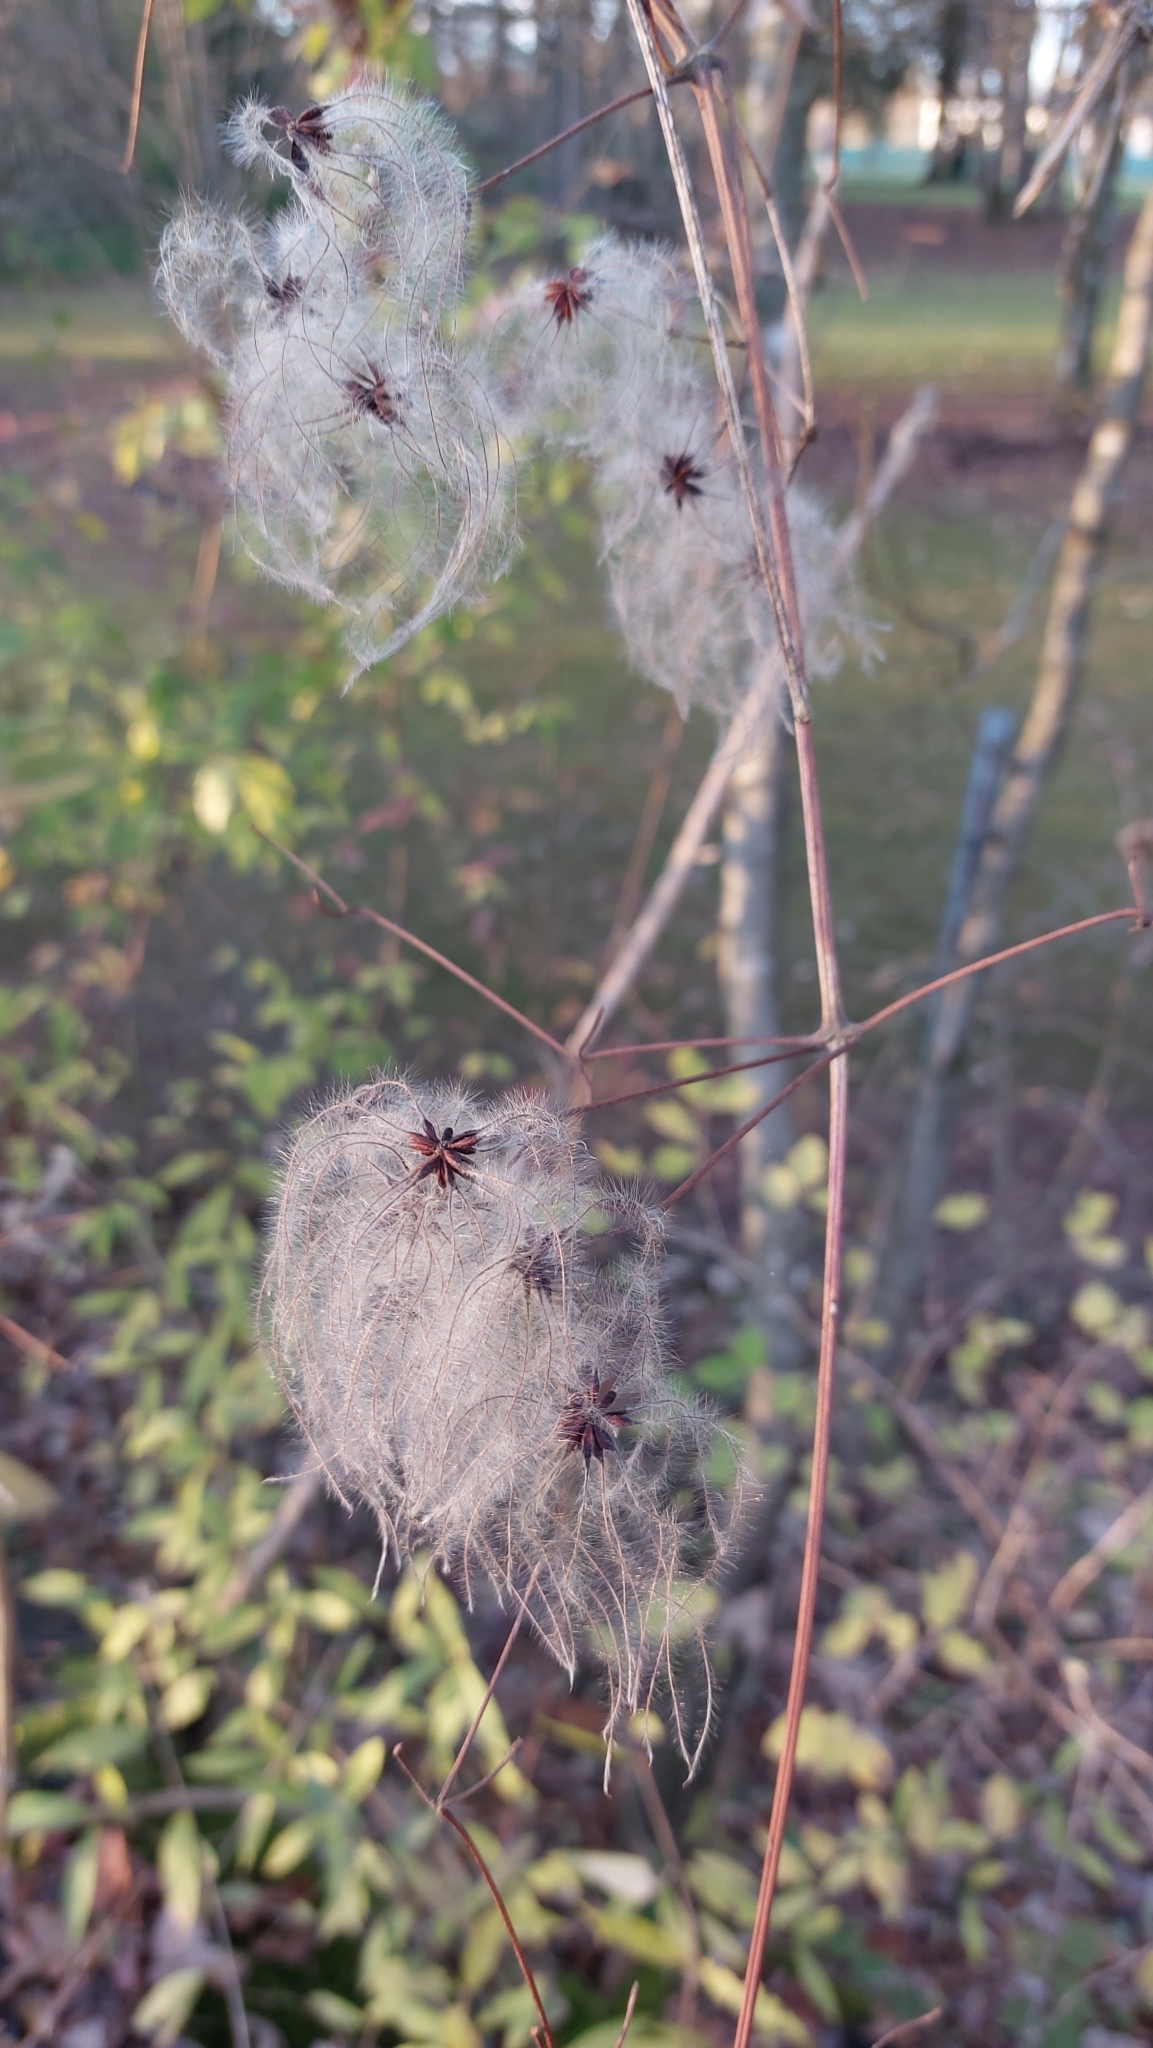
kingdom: Plantae
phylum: Tracheophyta
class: Magnoliopsida
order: Ranunculales
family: Ranunculaceae
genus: Clematis
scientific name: Clematis vitalba
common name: Evergreen clematis
